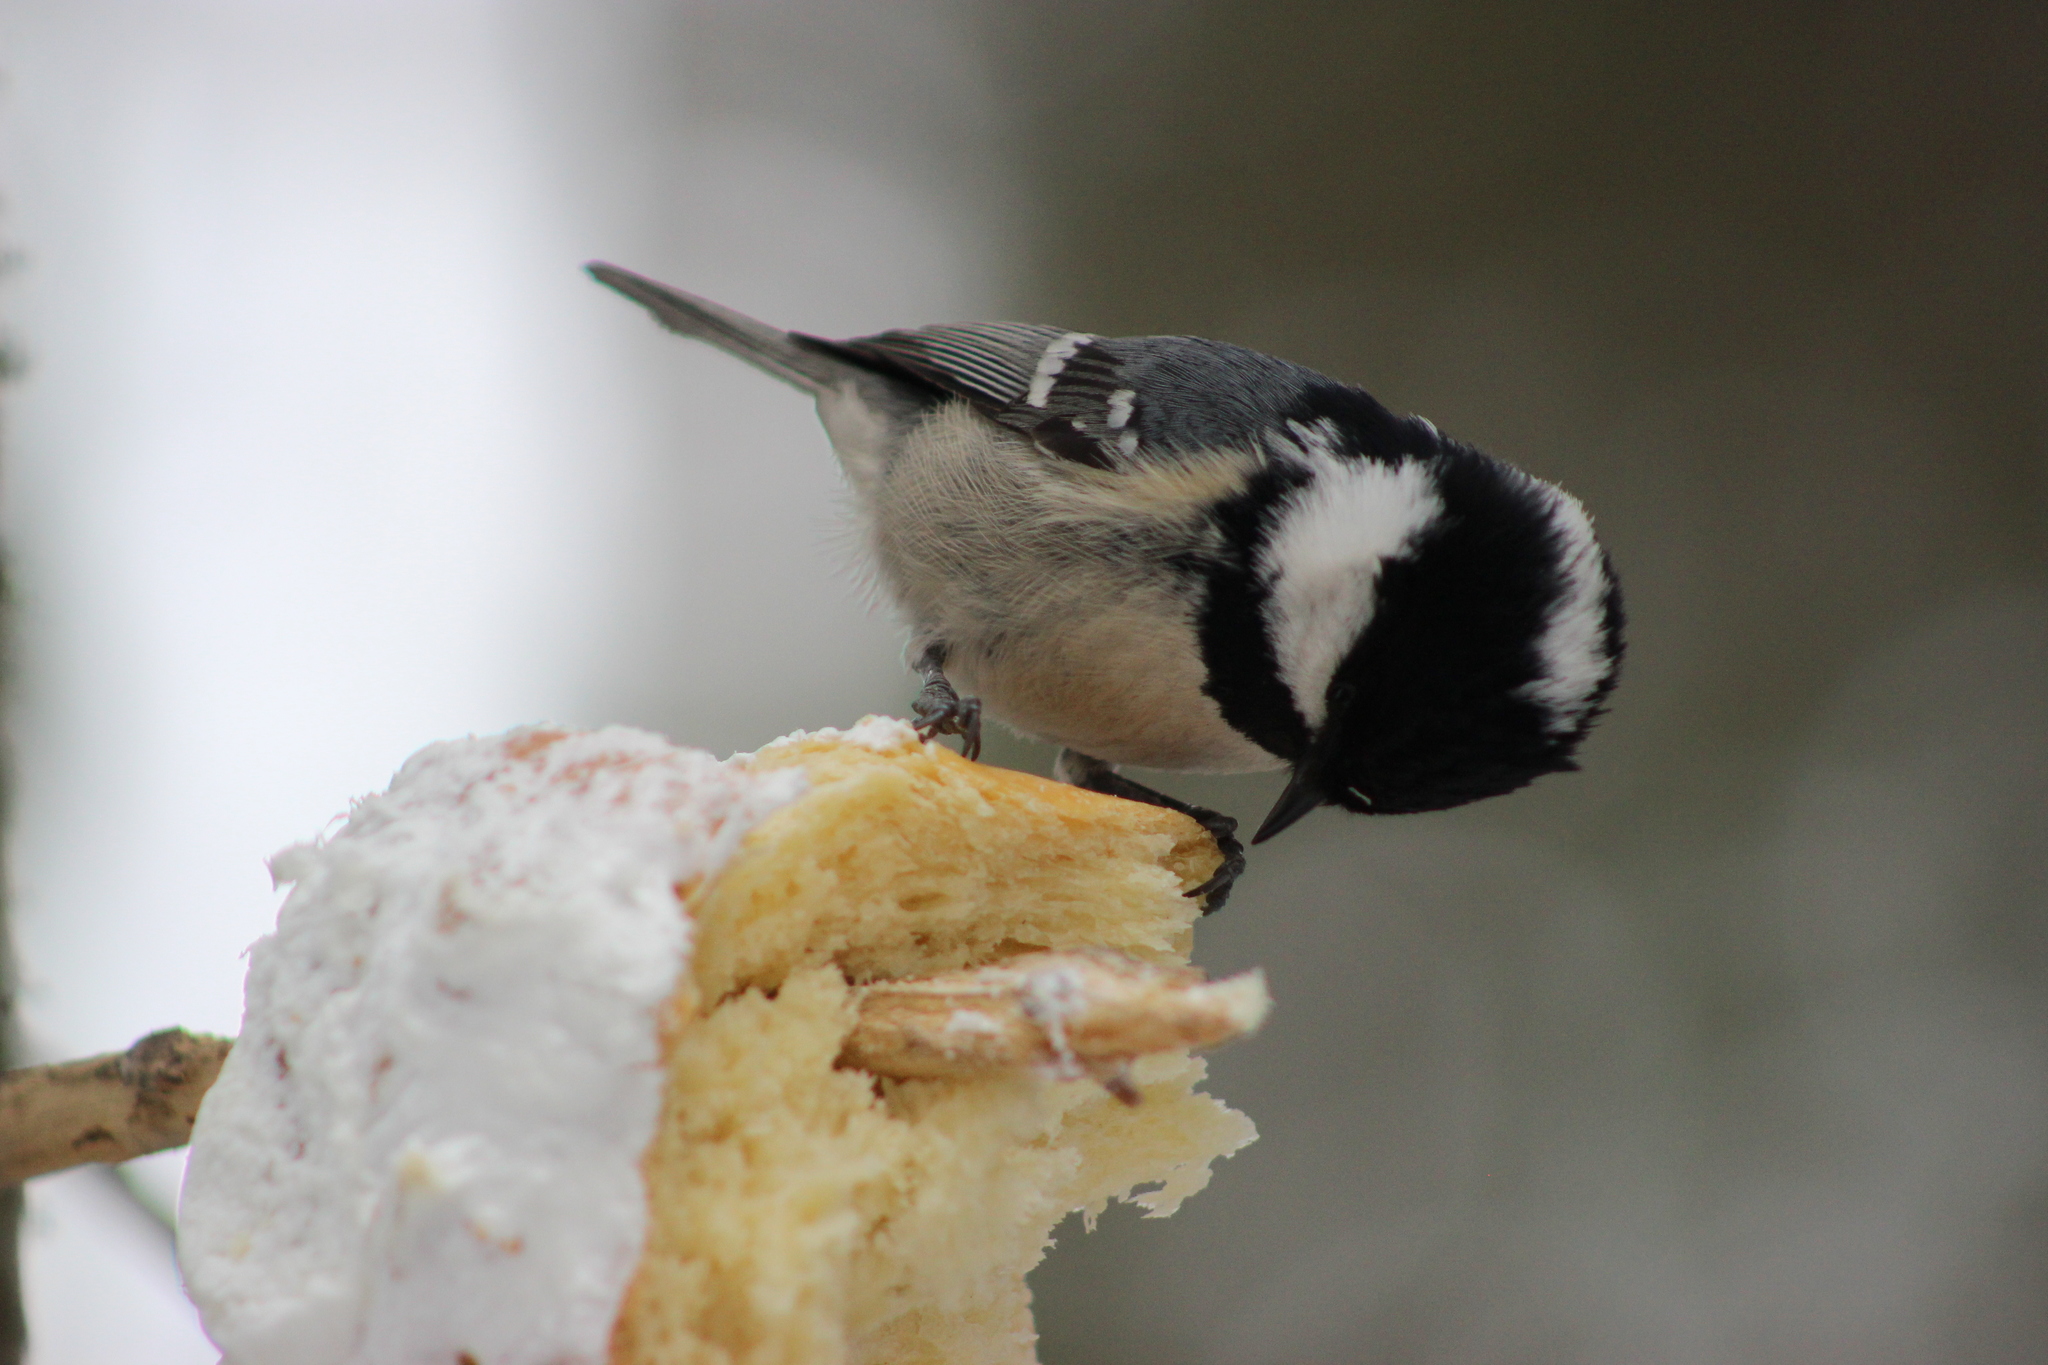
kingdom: Animalia
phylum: Chordata
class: Aves
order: Passeriformes
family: Paridae
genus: Periparus
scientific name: Periparus ater
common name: Coal tit
